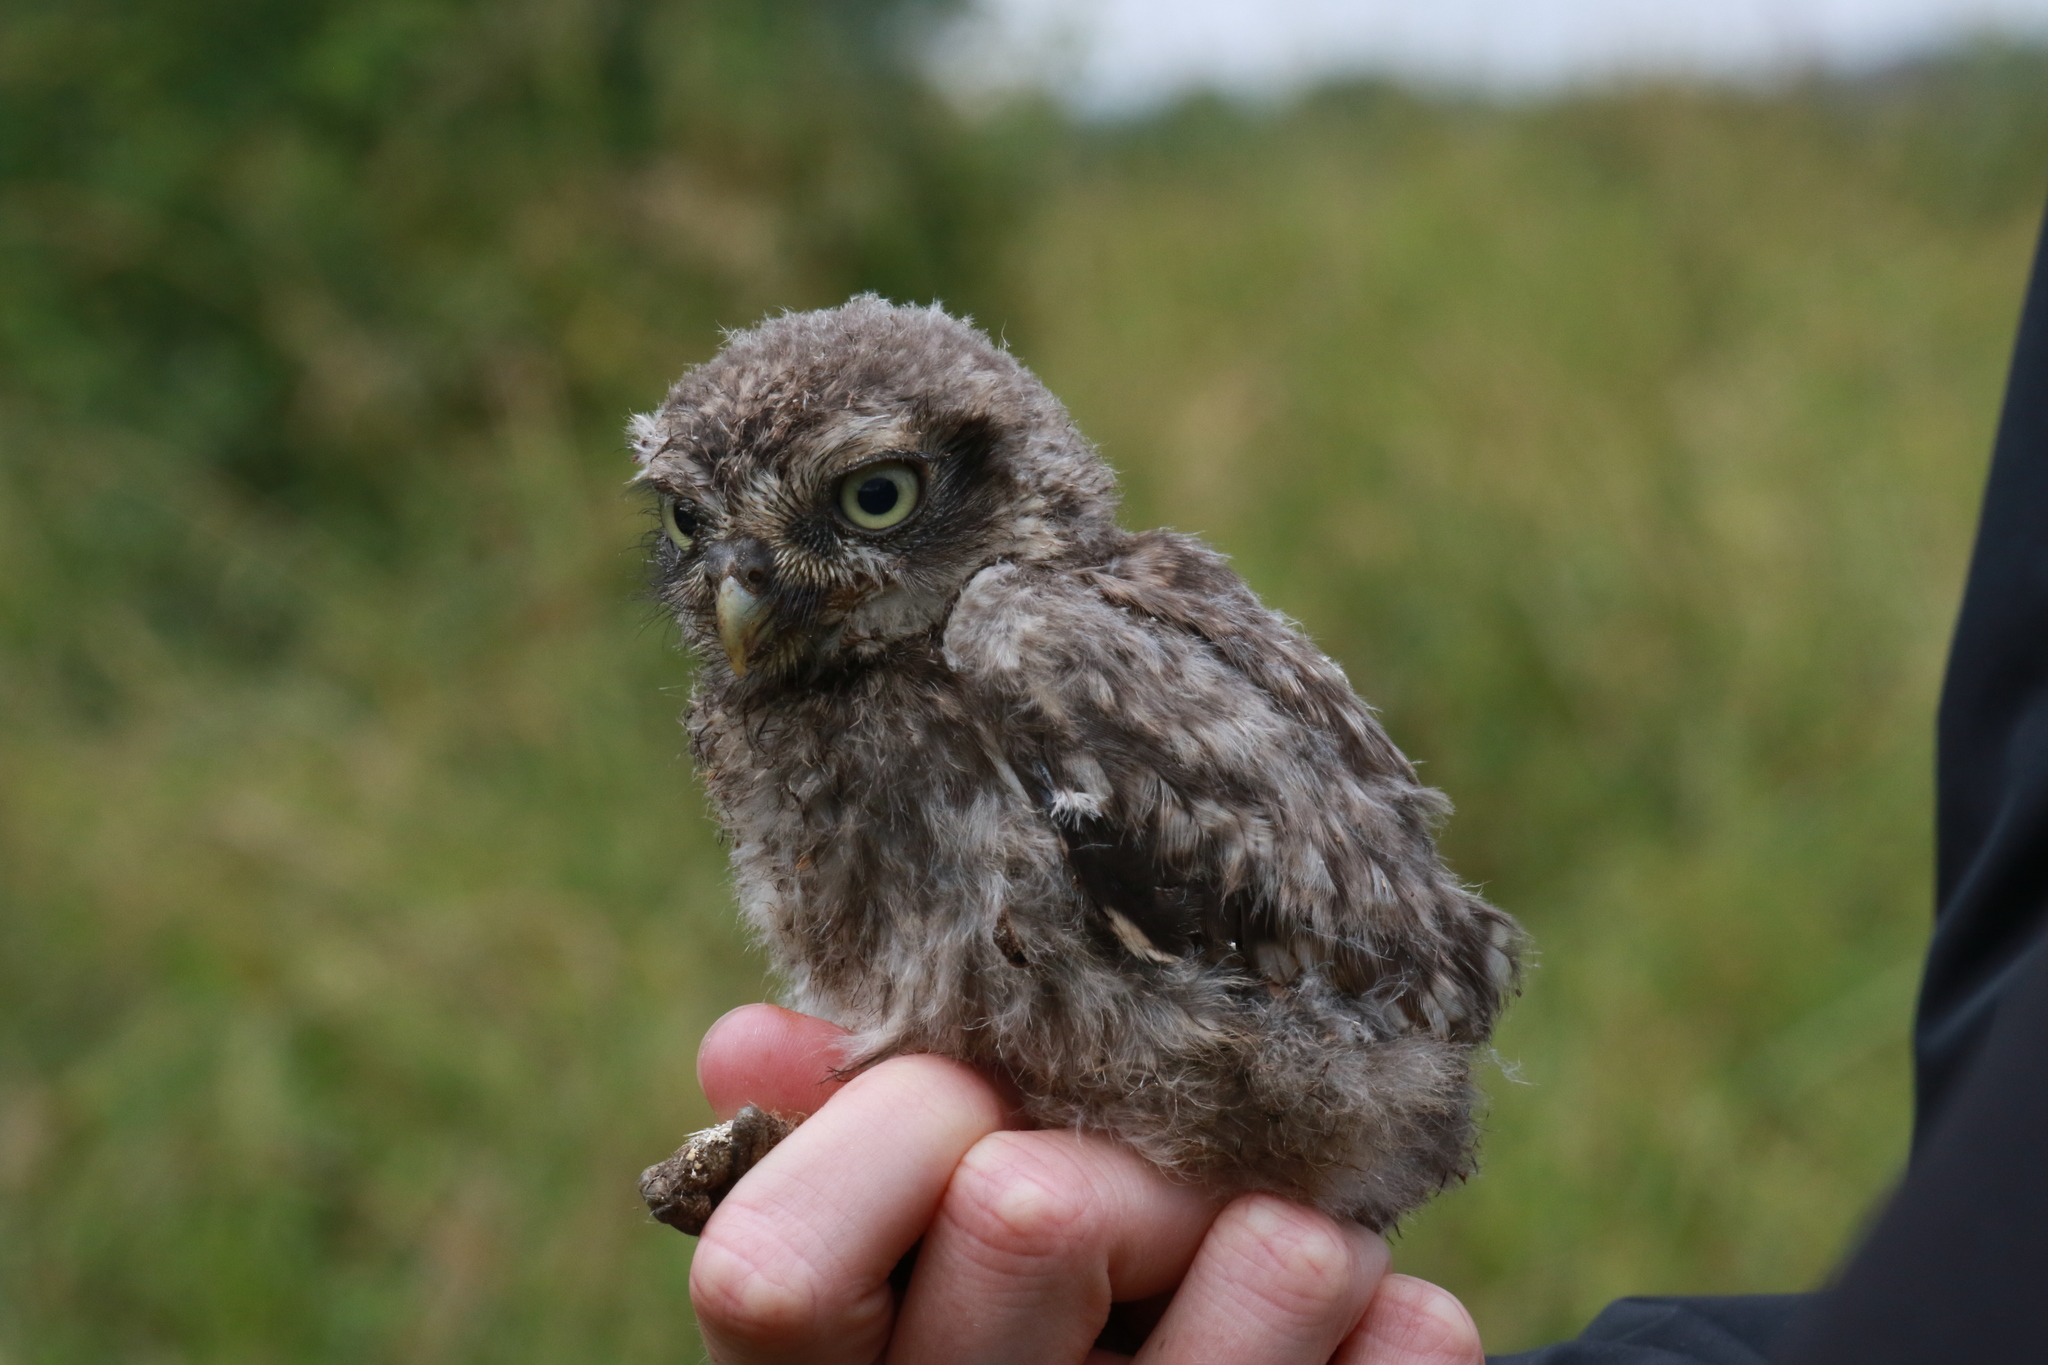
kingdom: Animalia
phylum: Chordata
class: Aves
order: Strigiformes
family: Strigidae
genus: Athene
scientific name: Athene noctua
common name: Little owl
